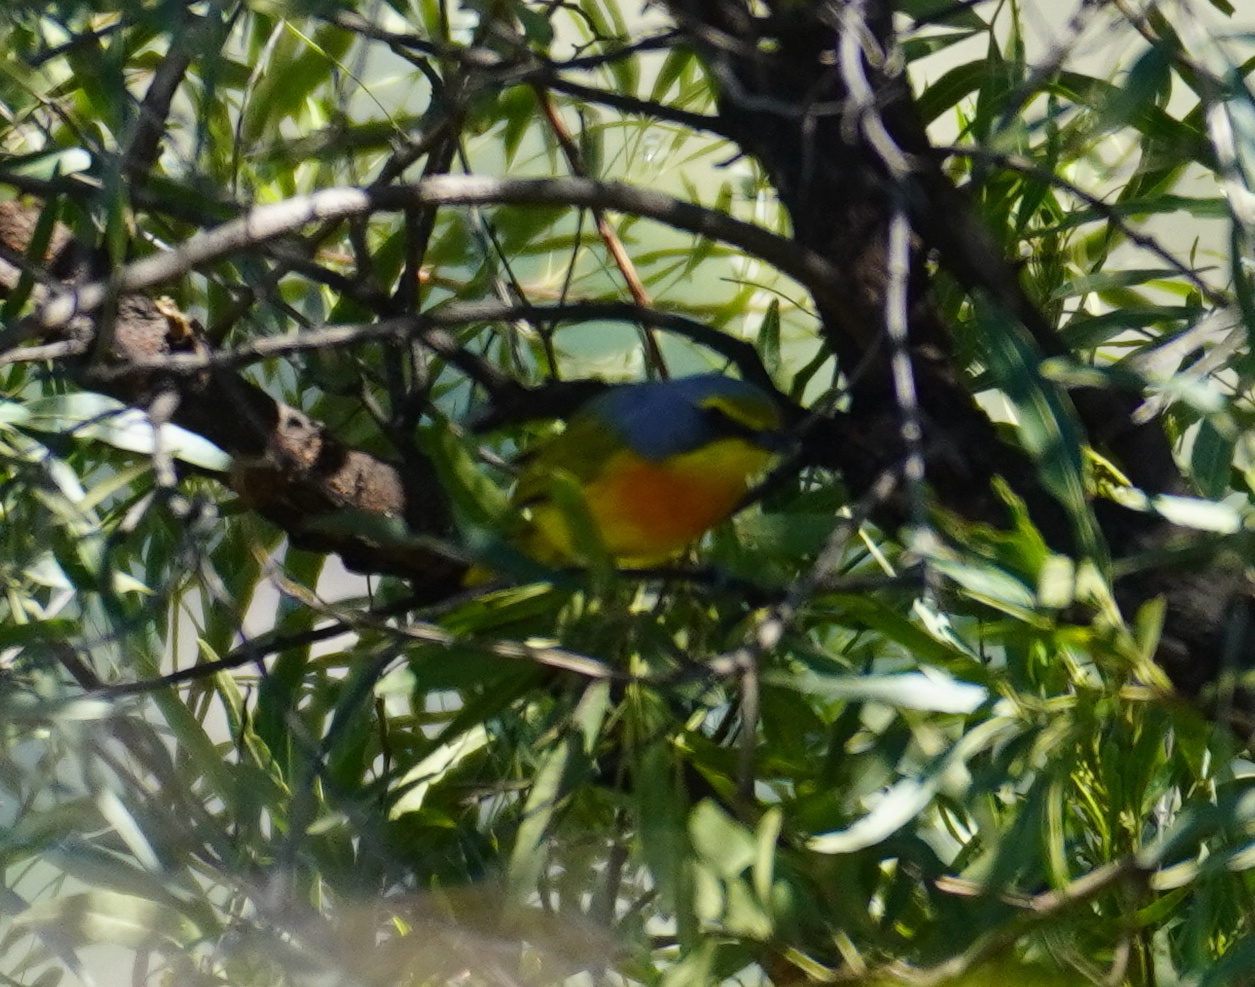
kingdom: Animalia
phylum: Chordata
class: Aves
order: Passeriformes
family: Malaconotidae
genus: Chlorophoneus
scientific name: Chlorophoneus sulfureopectus
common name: Orange-breasted bushshrike
